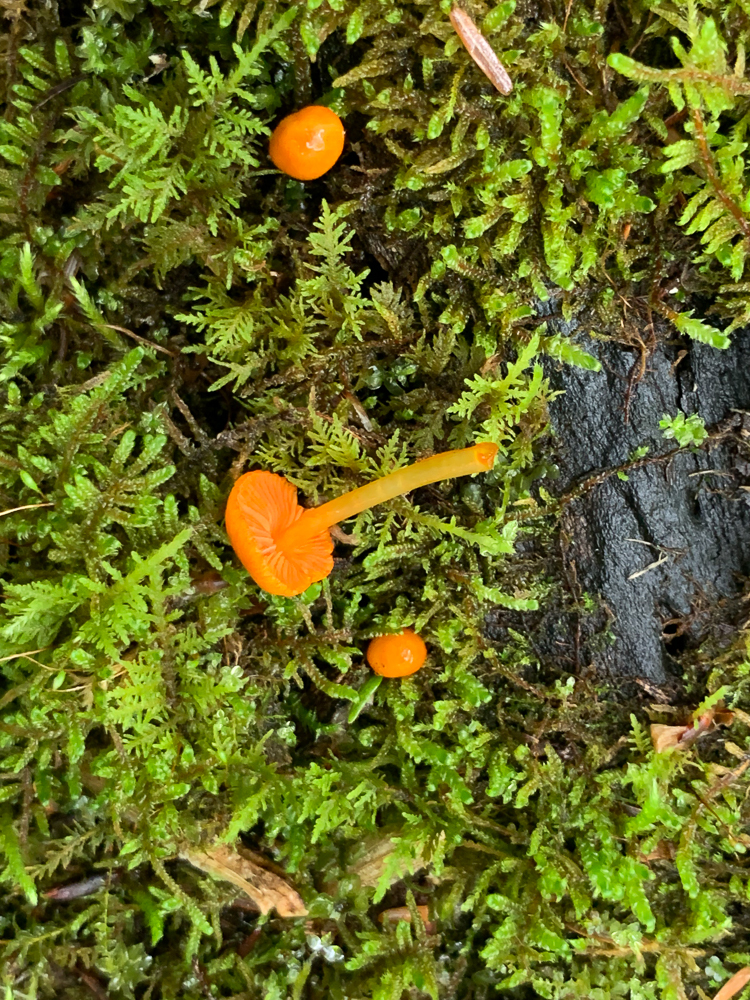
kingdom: Fungi
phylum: Basidiomycota
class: Agaricomycetes
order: Agaricales
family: Mycenaceae
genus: Mycena
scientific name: Mycena leaiana
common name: Orange mycena
